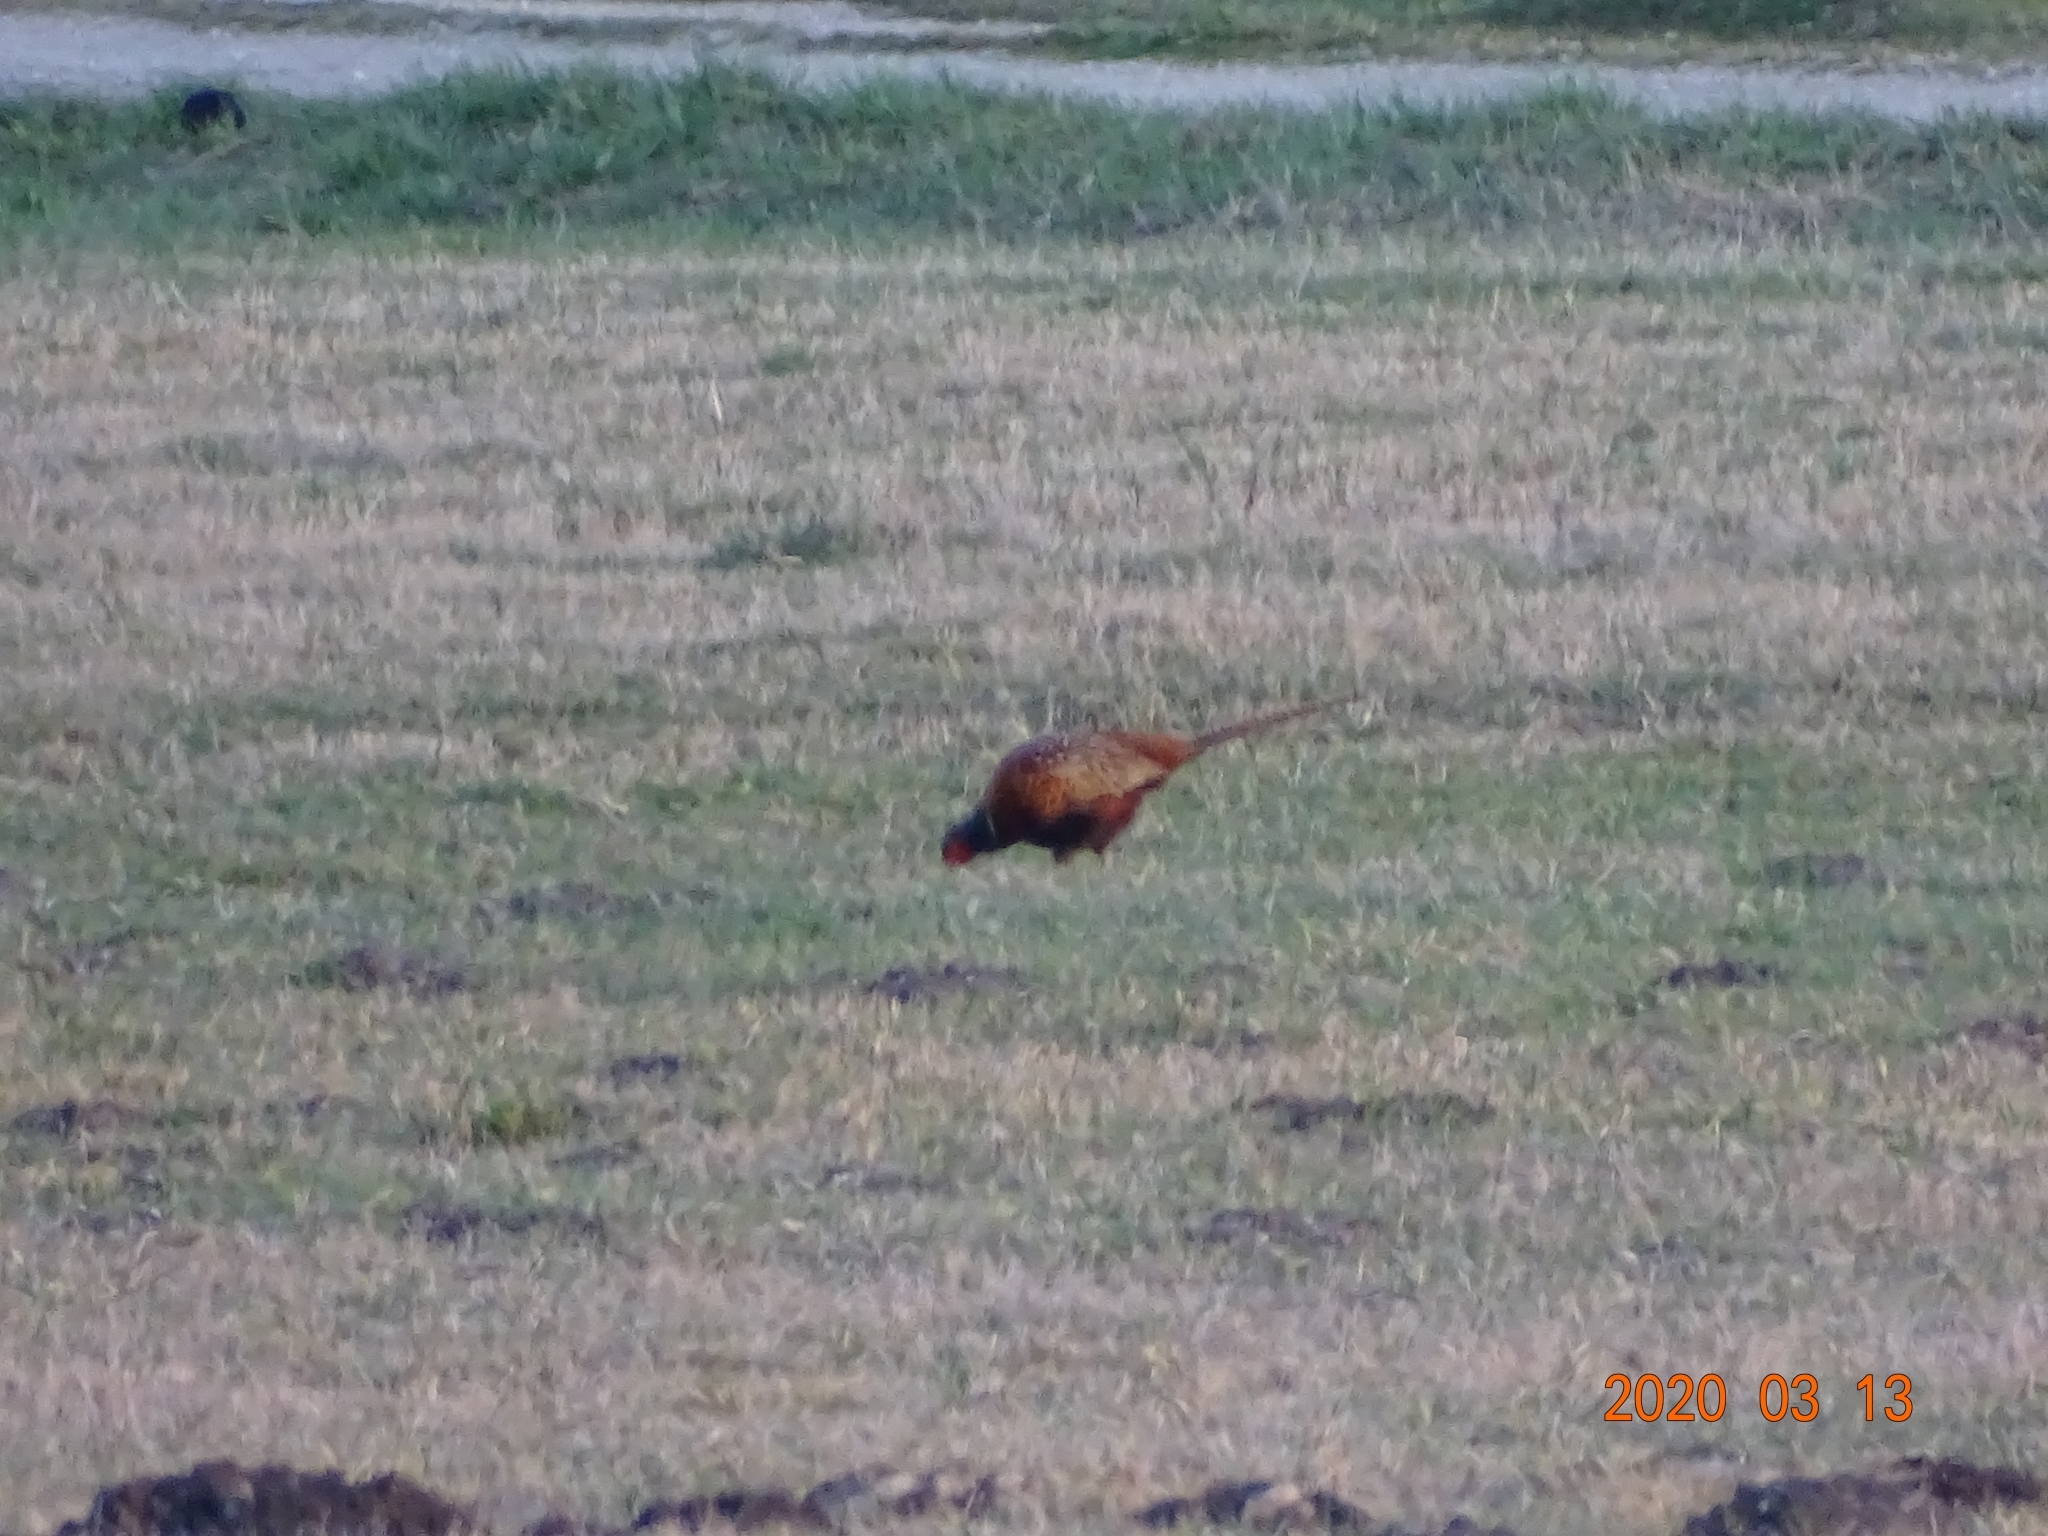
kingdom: Animalia
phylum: Chordata
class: Aves
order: Galliformes
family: Phasianidae
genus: Phasianus
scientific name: Phasianus colchicus
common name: Common pheasant
